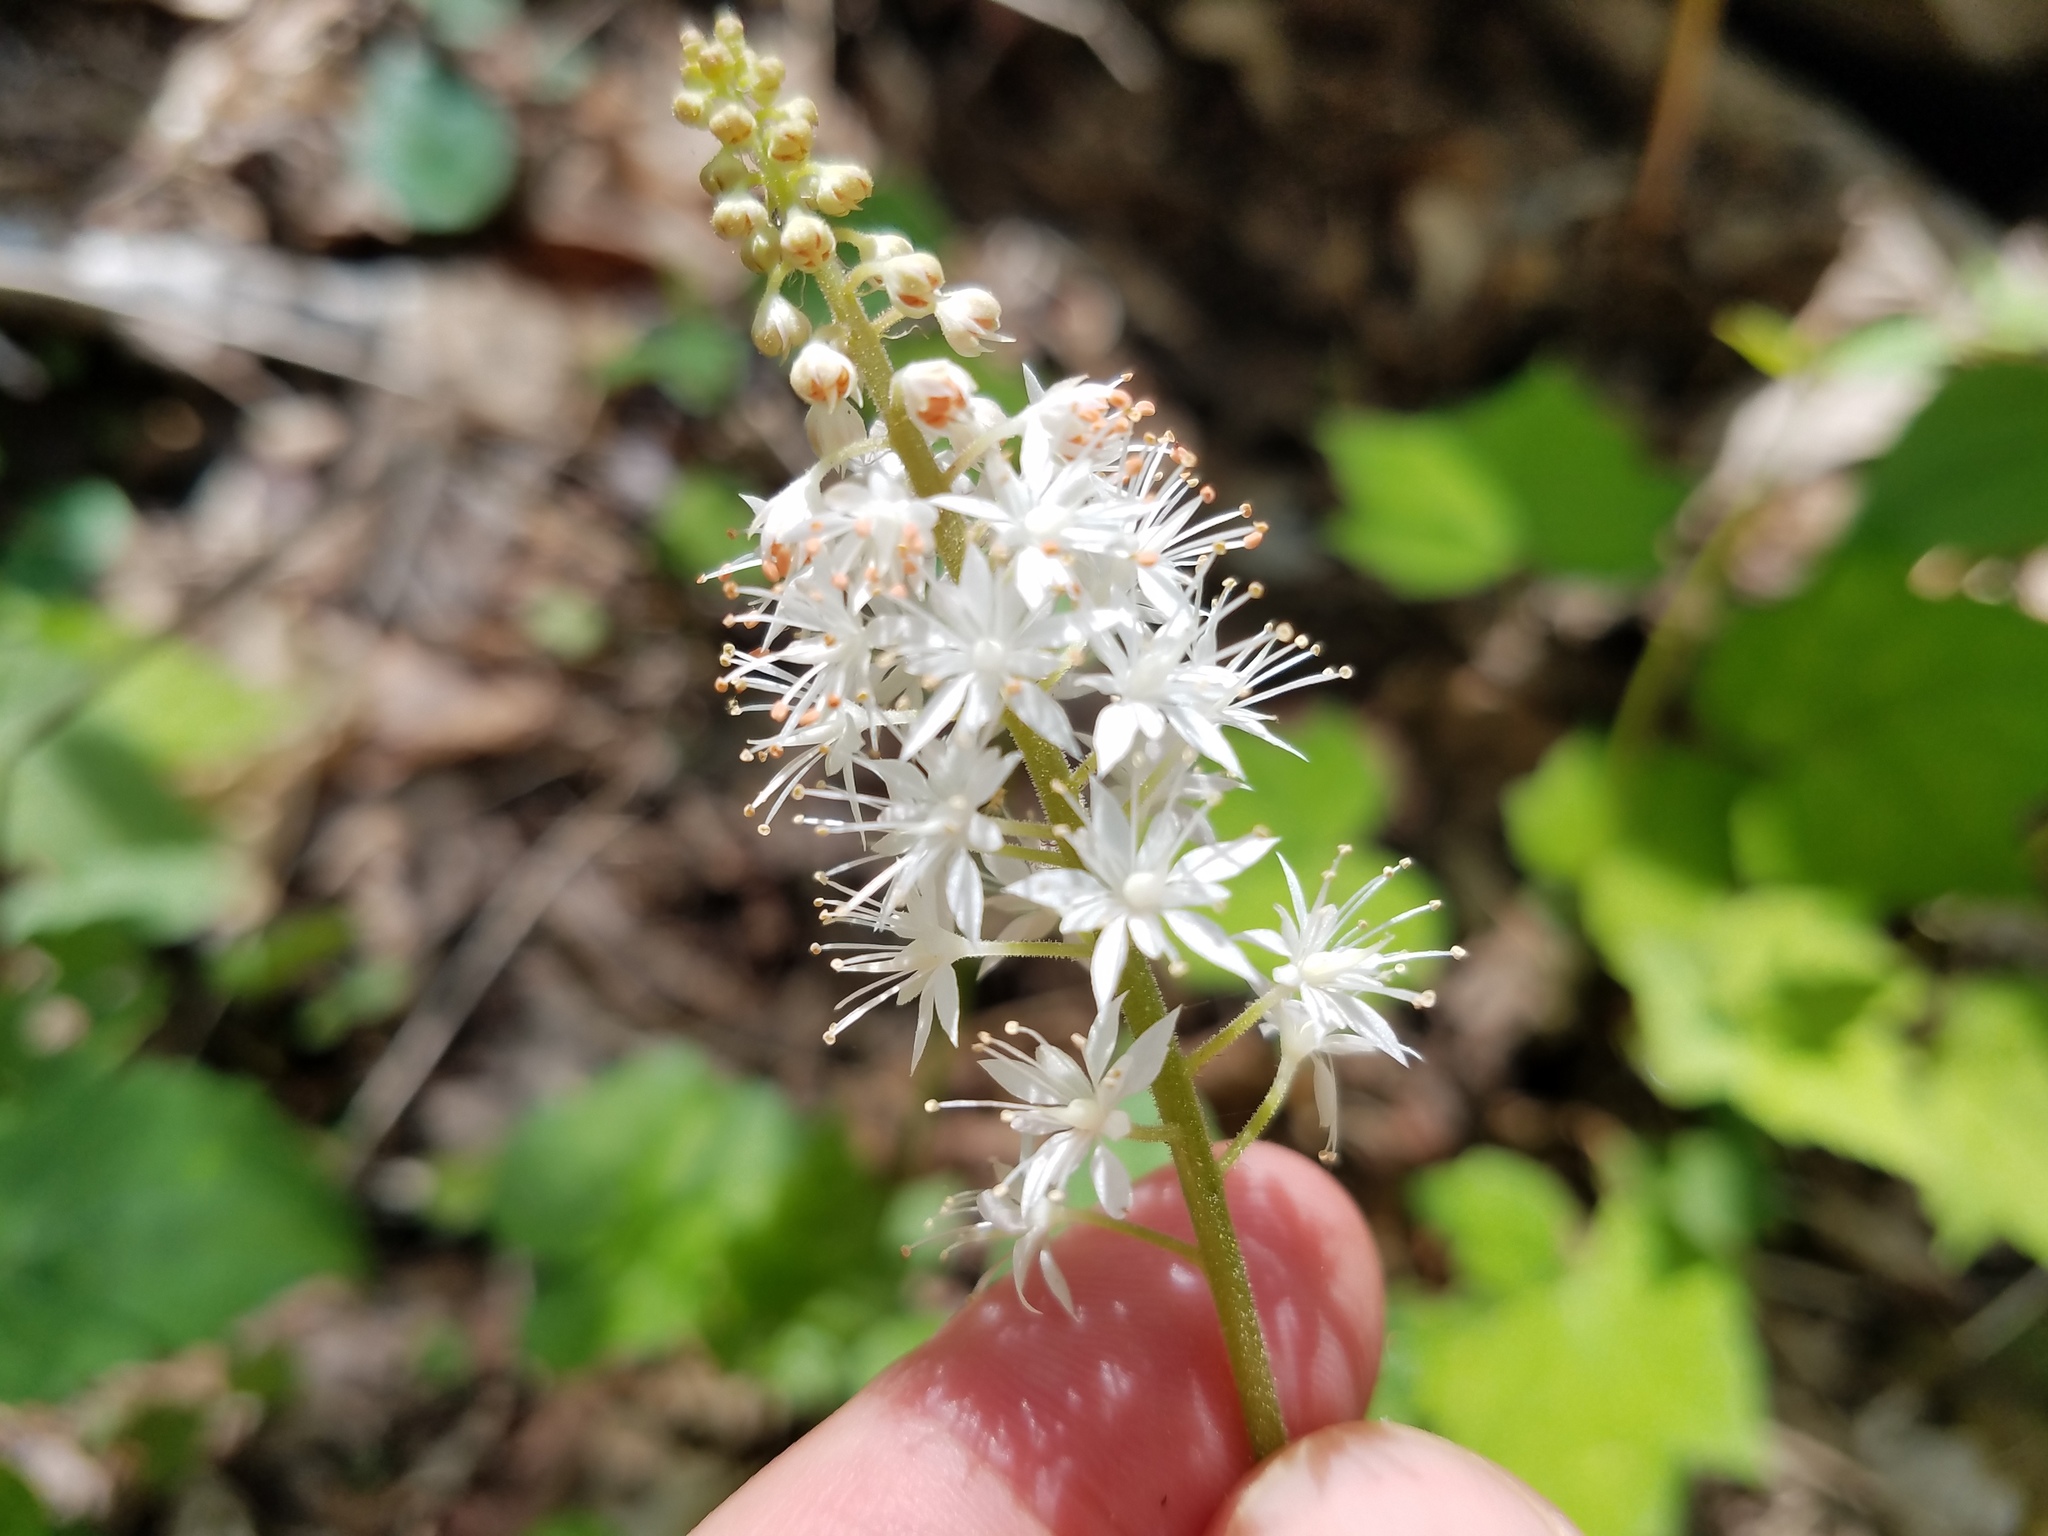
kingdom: Plantae
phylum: Tracheophyta
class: Magnoliopsida
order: Saxifragales
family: Saxifragaceae
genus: Tiarella
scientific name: Tiarella nautila
